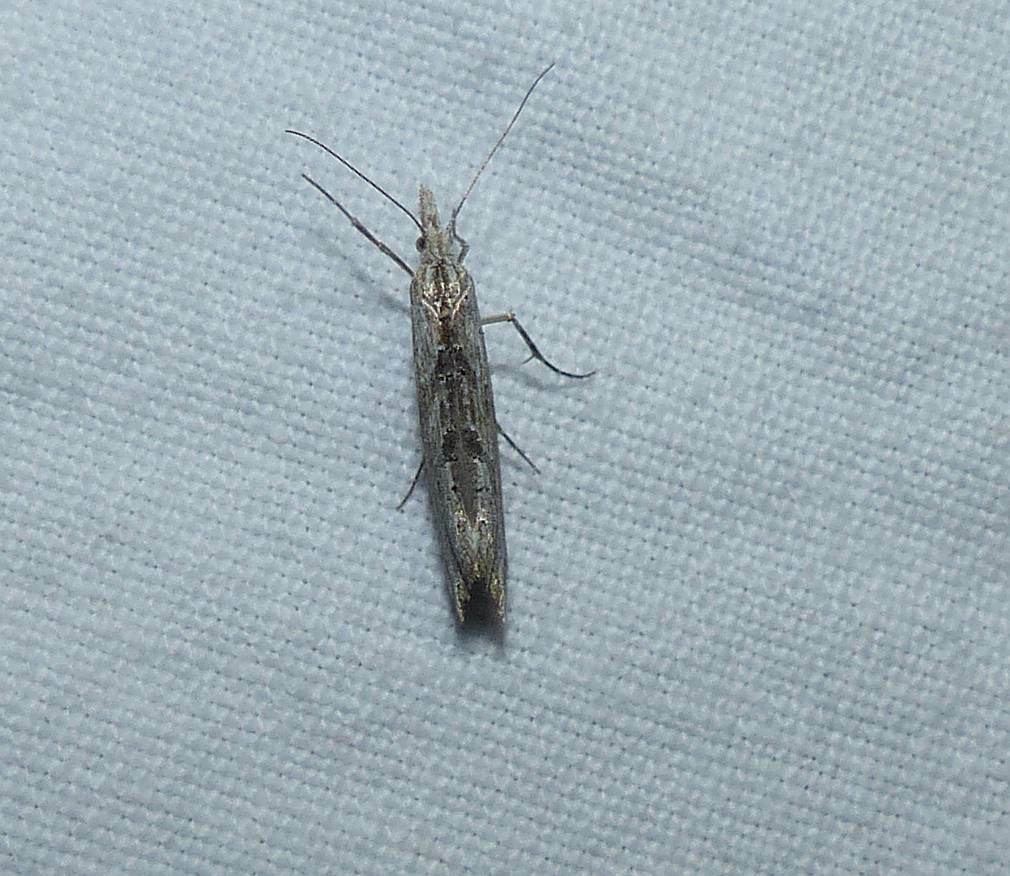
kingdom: Animalia
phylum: Arthropoda
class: Insecta
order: Lepidoptera
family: Ypsolophidae
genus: Ypsolopha
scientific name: Ypsolopha falciferella
